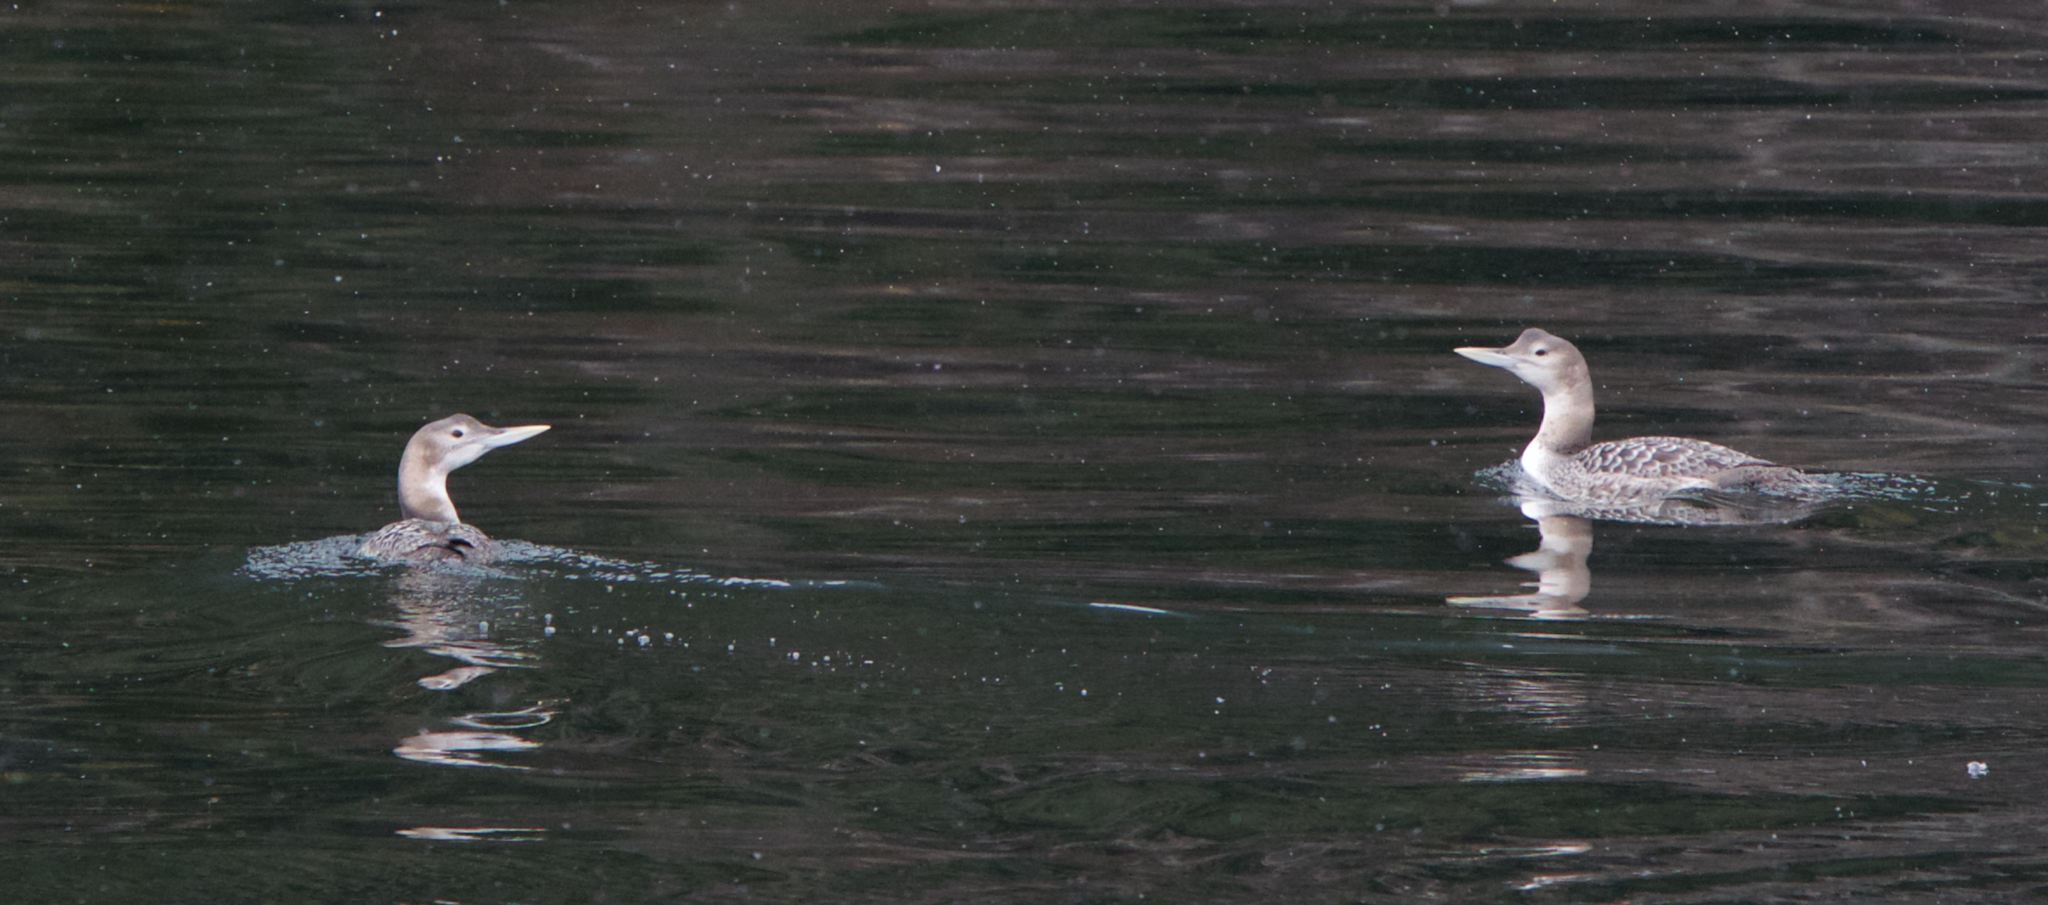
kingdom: Animalia
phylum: Chordata
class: Aves
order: Gaviiformes
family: Gaviidae
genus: Gavia
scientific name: Gavia adamsii
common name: Yellow-billed loon
